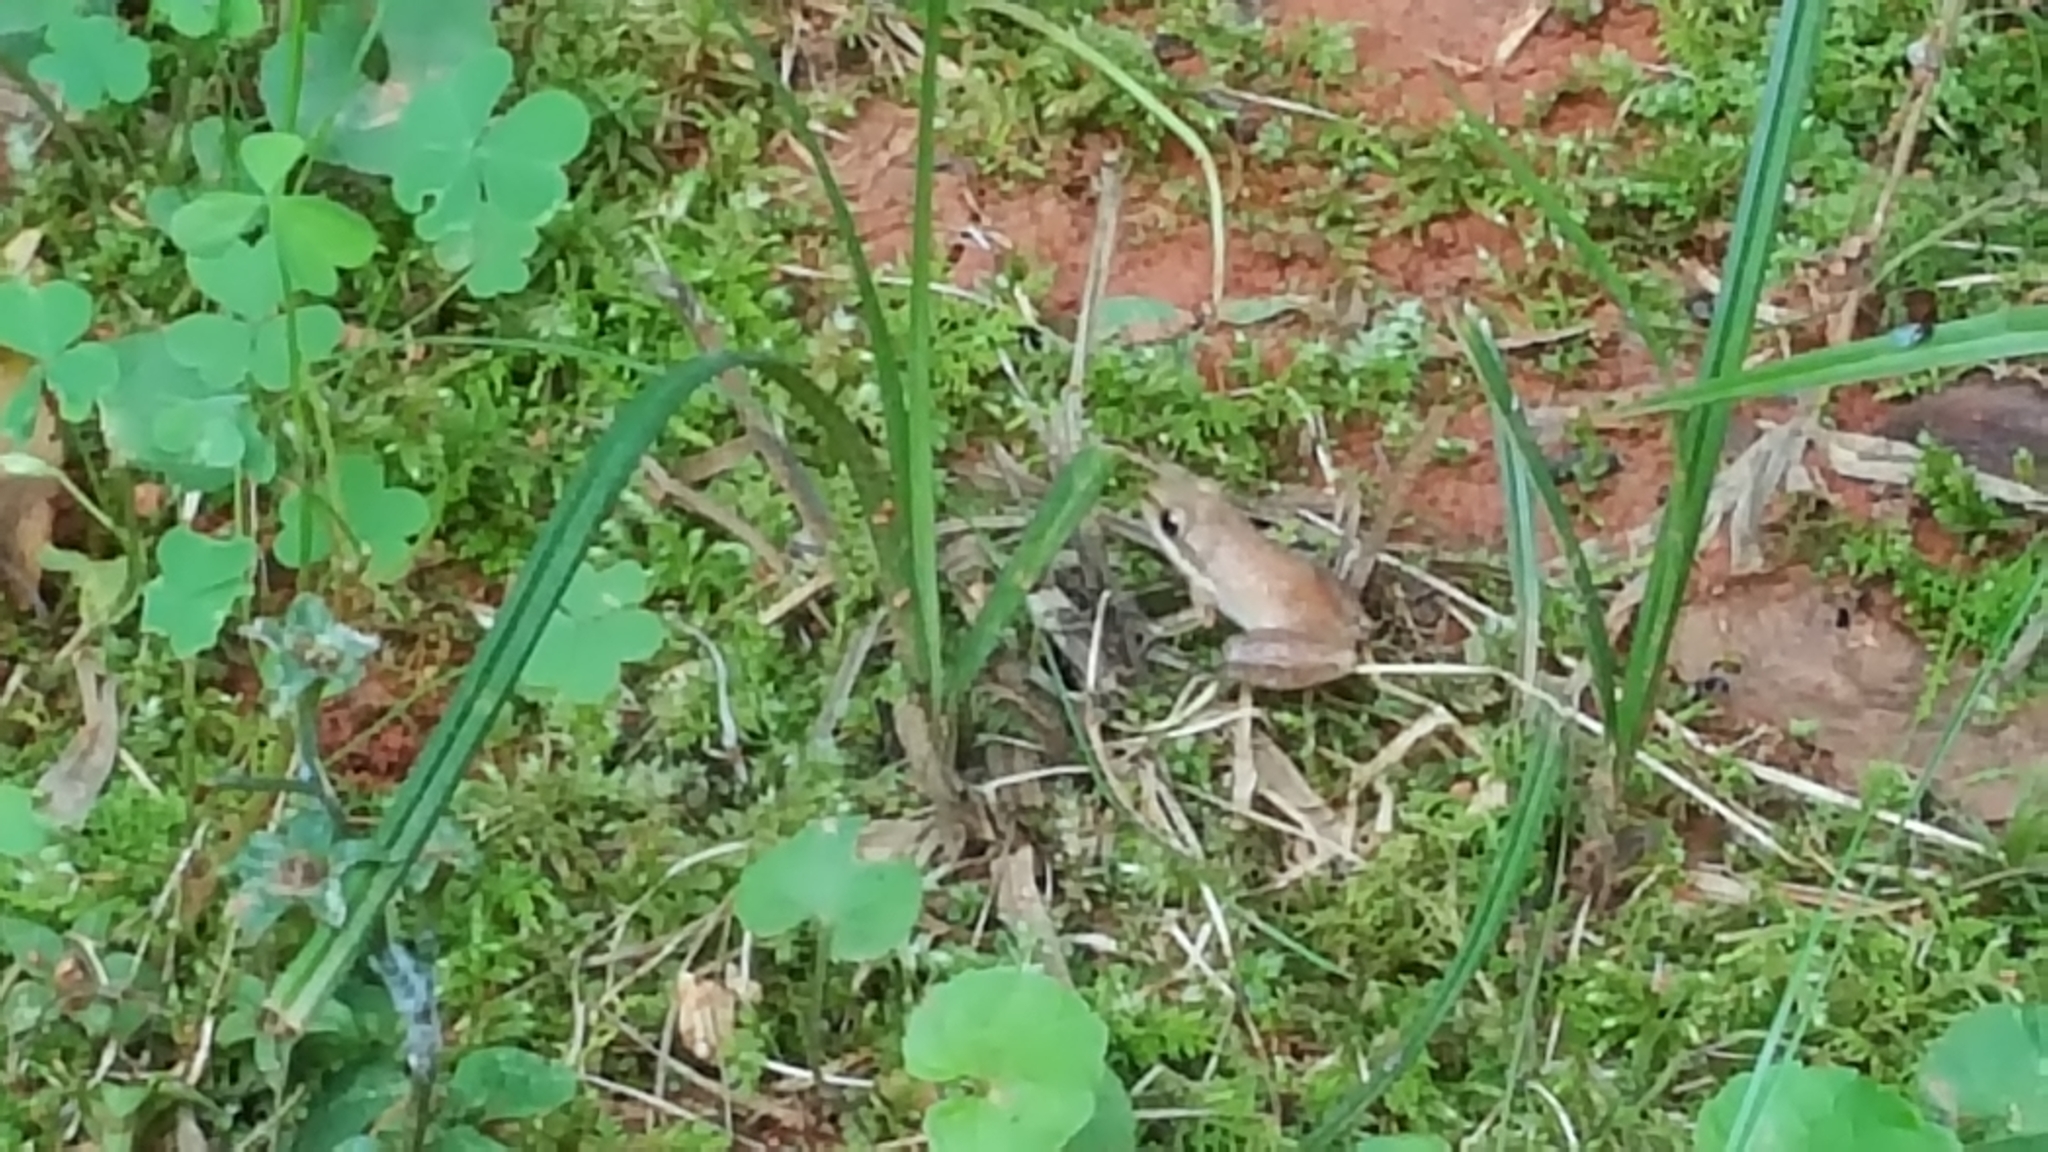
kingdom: Animalia
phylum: Chordata
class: Amphibia
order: Anura
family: Hylidae
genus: Pseudacris
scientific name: Pseudacris feriarum
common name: Upland chorus frog
